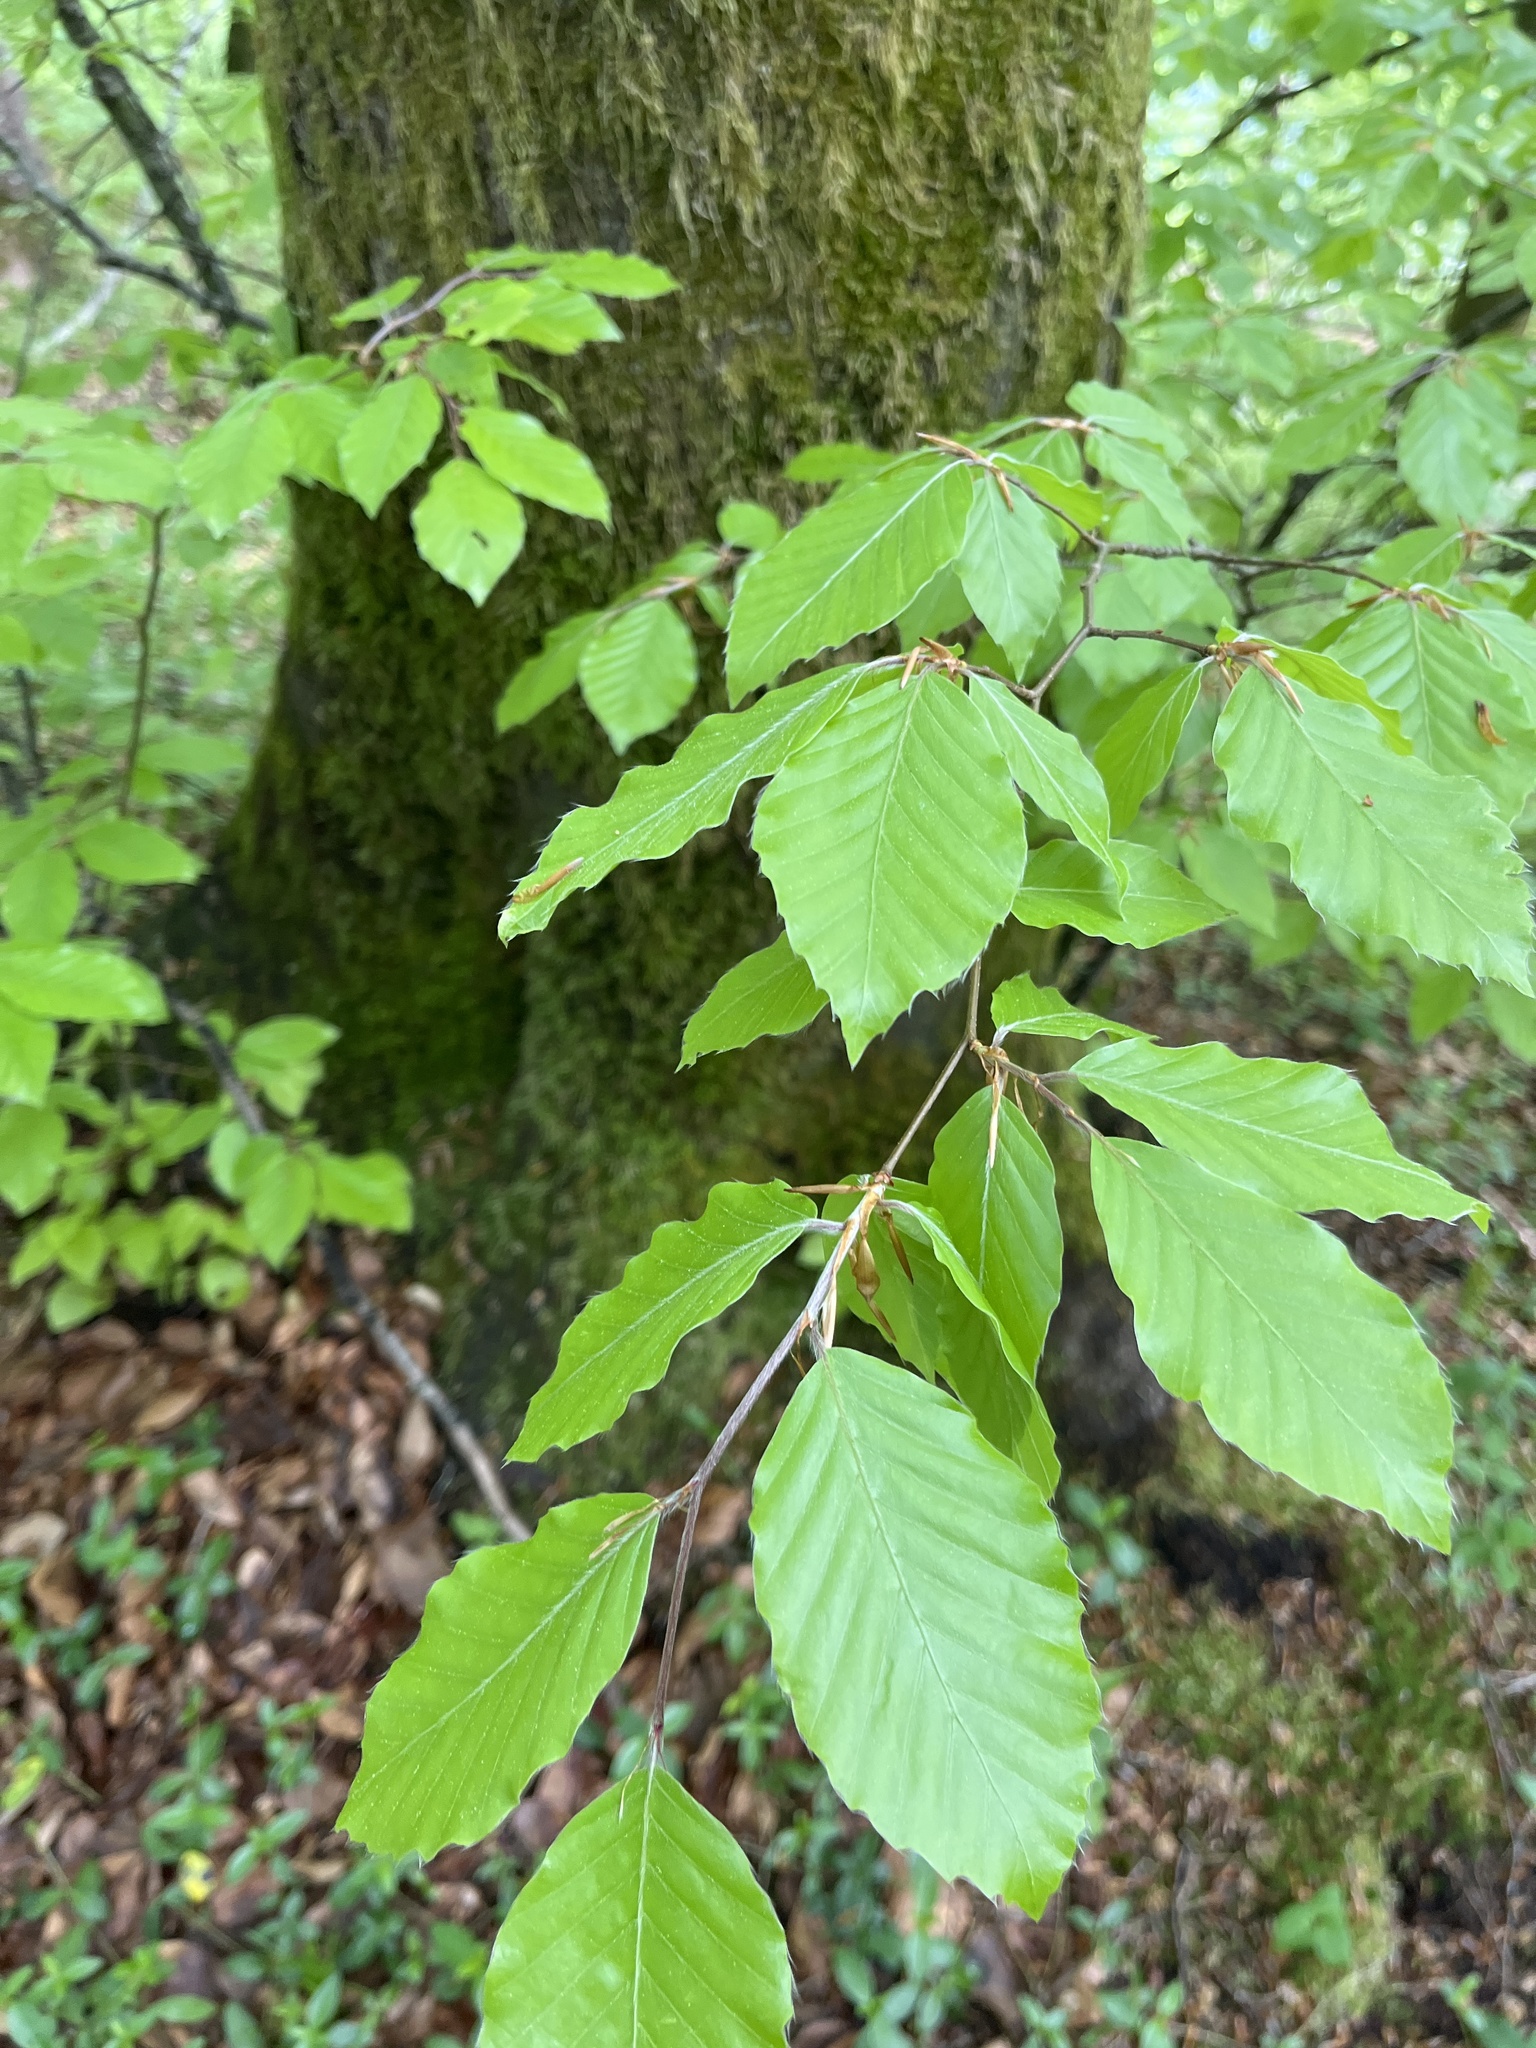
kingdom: Plantae
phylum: Tracheophyta
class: Magnoliopsida
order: Fagales
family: Fagaceae
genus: Fagus
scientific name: Fagus sylvatica
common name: Beech
